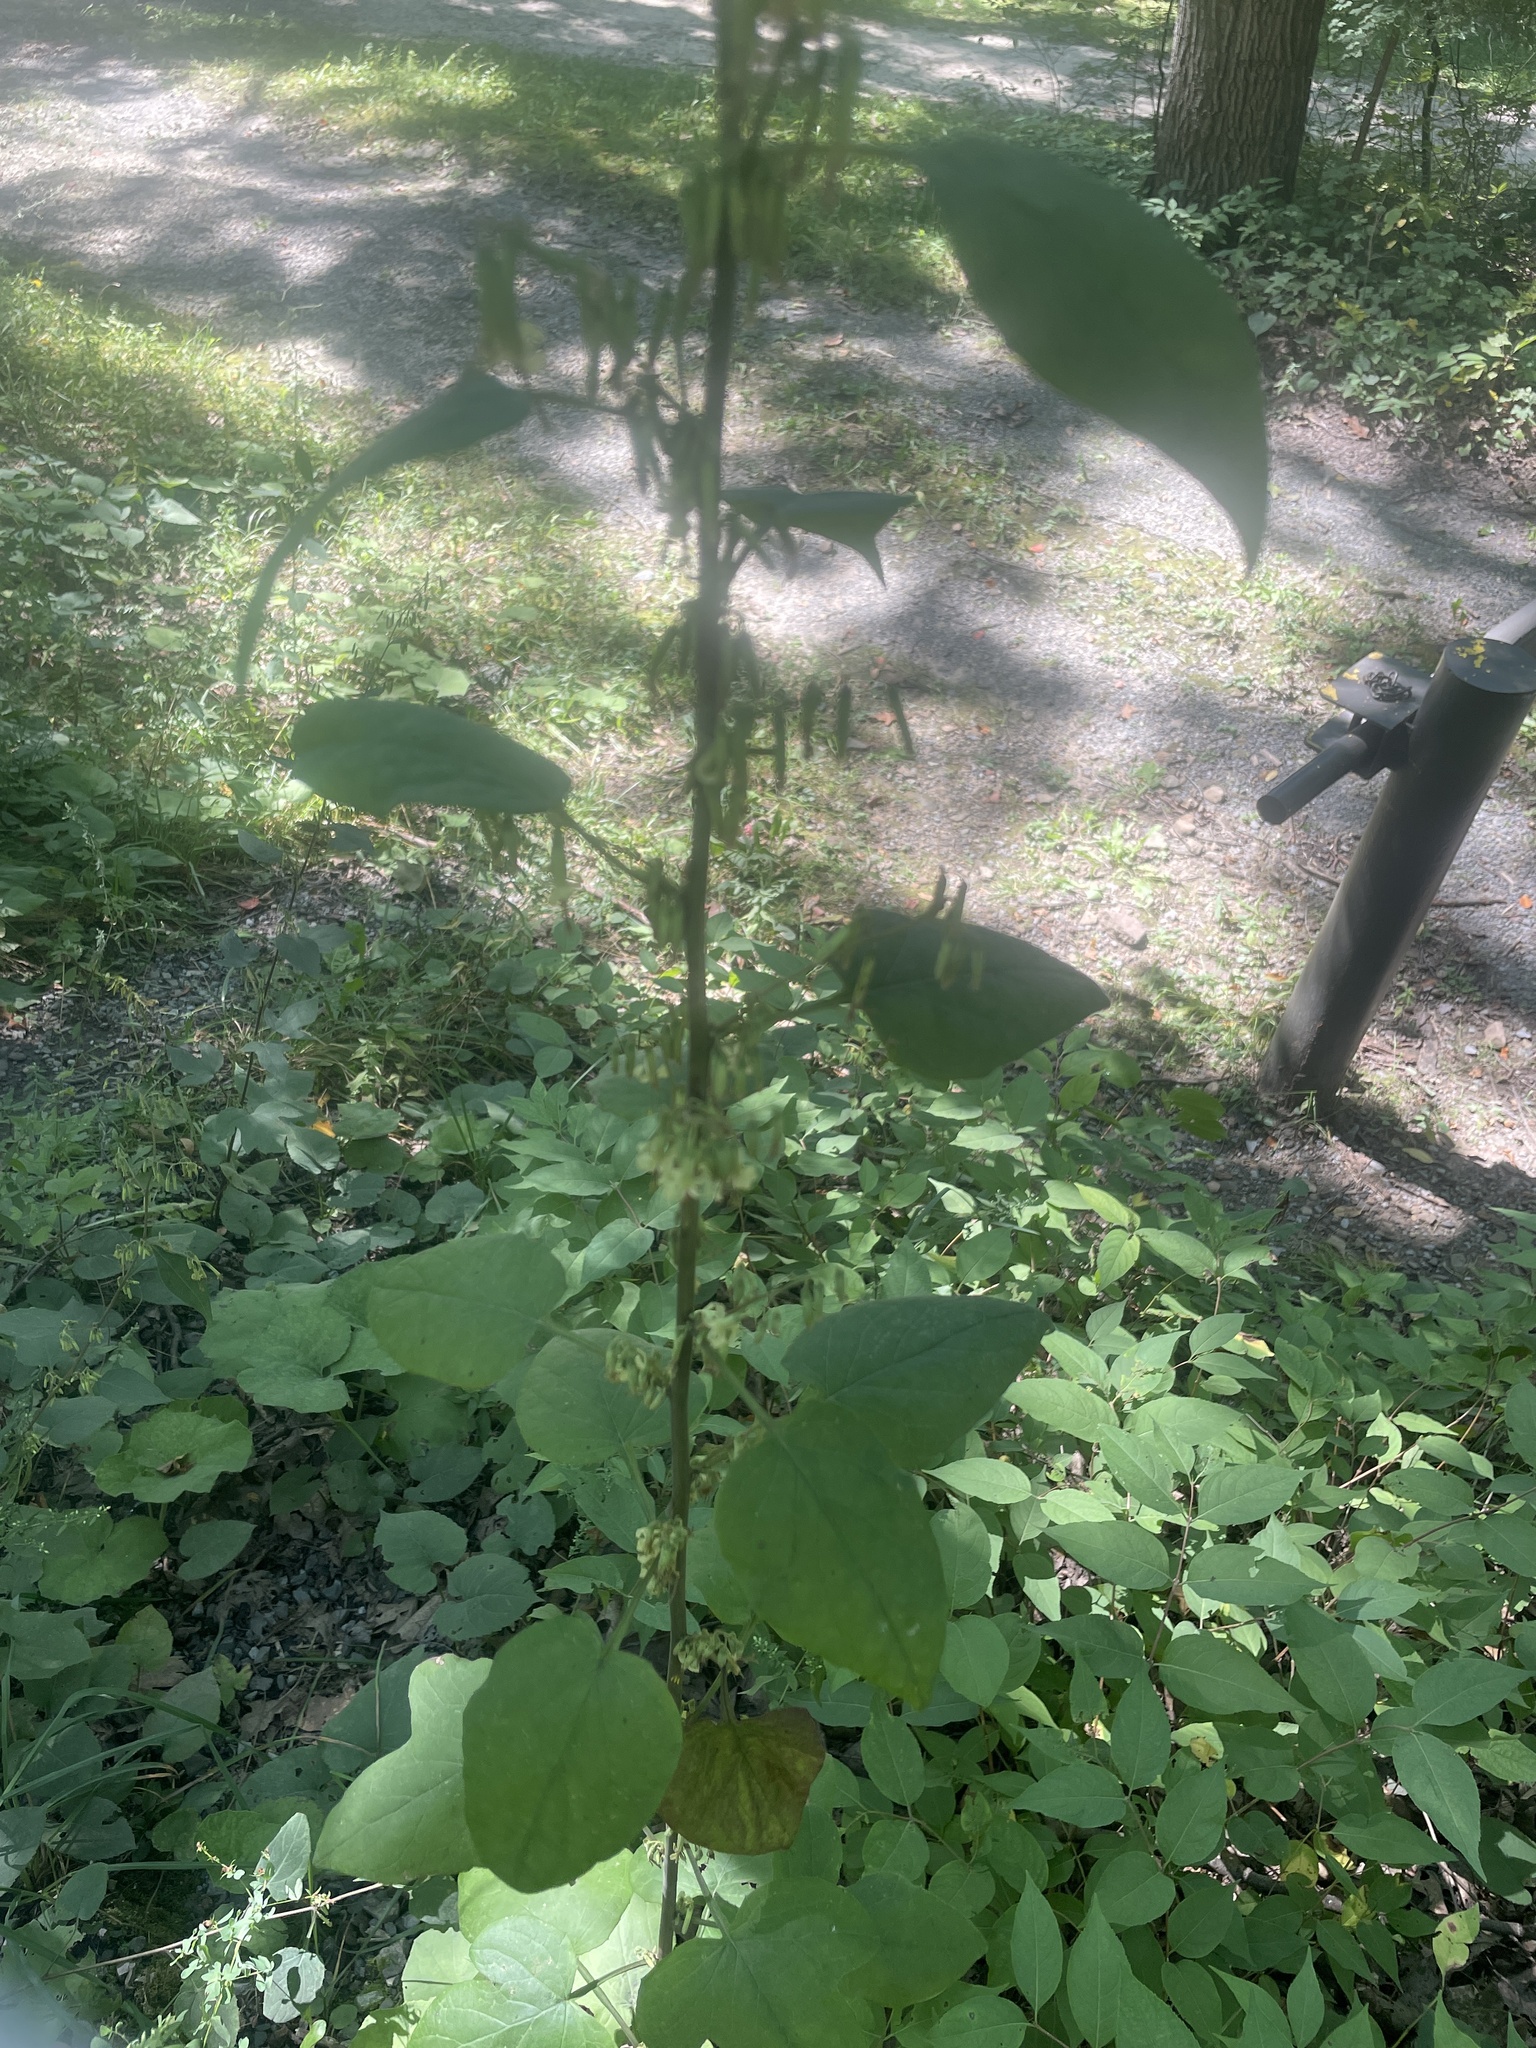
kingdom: Plantae
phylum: Tracheophyta
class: Magnoliopsida
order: Asterales
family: Asteraceae
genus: Nabalus
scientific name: Nabalus altissima
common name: Tall rattlesnakeroot
